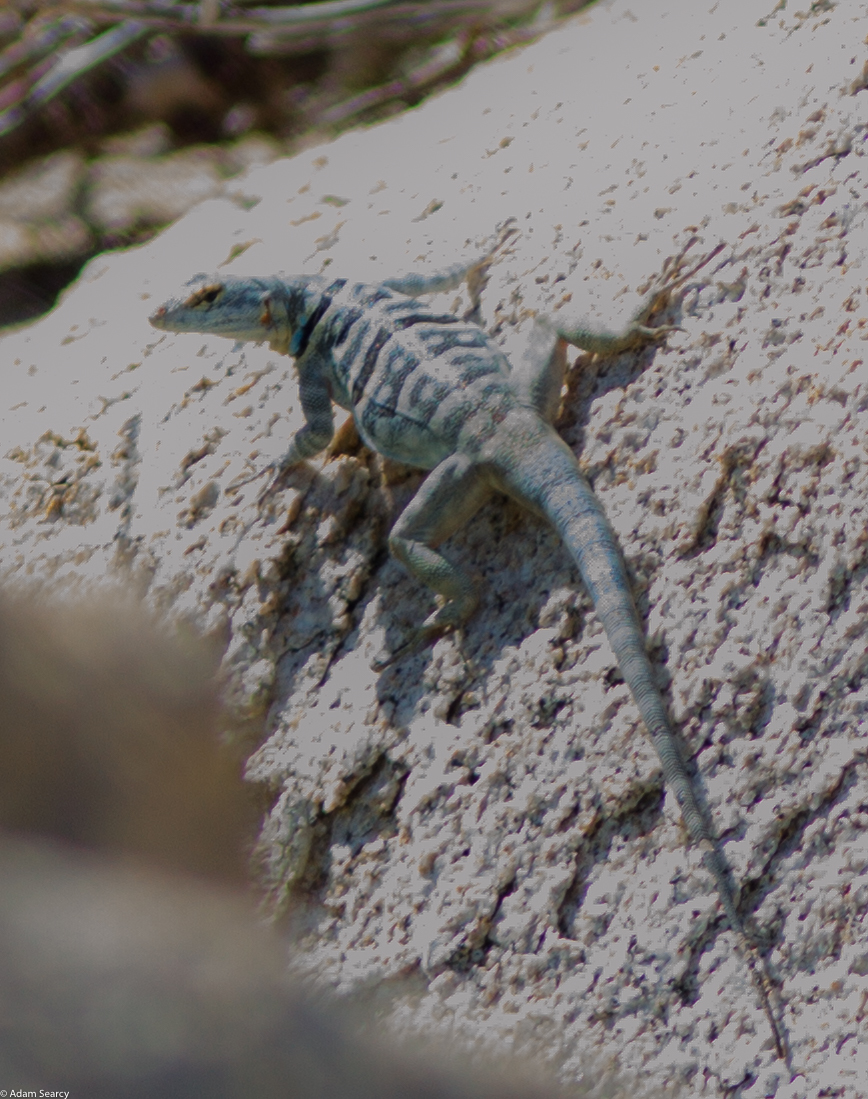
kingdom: Animalia
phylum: Chordata
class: Squamata
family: Phrynosomatidae
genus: Petrosaurus
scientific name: Petrosaurus thalassinus
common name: Baja california rock lizard
